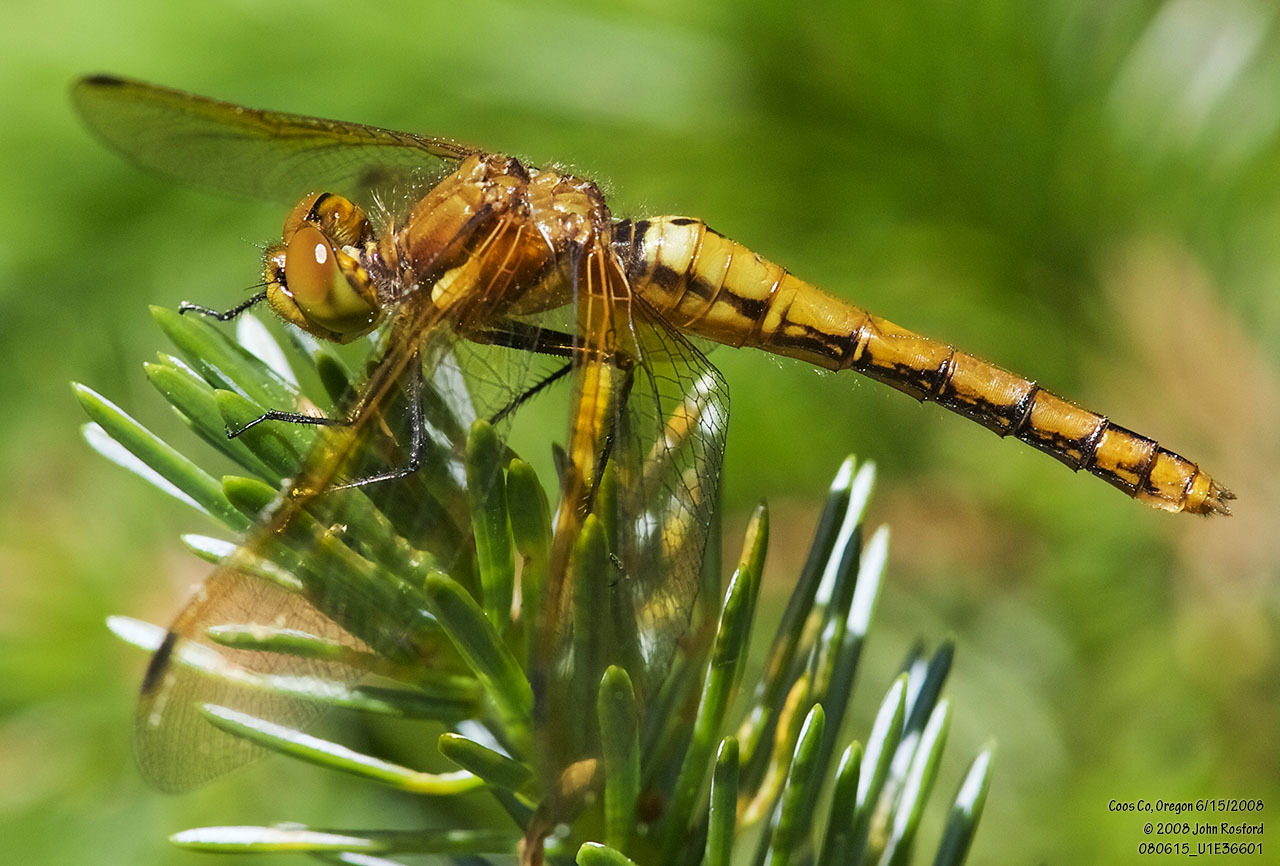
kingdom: Animalia
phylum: Arthropoda
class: Insecta
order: Odonata
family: Libellulidae
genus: Sympetrum
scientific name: Sympetrum madidum
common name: Red-veined meadowhawk
